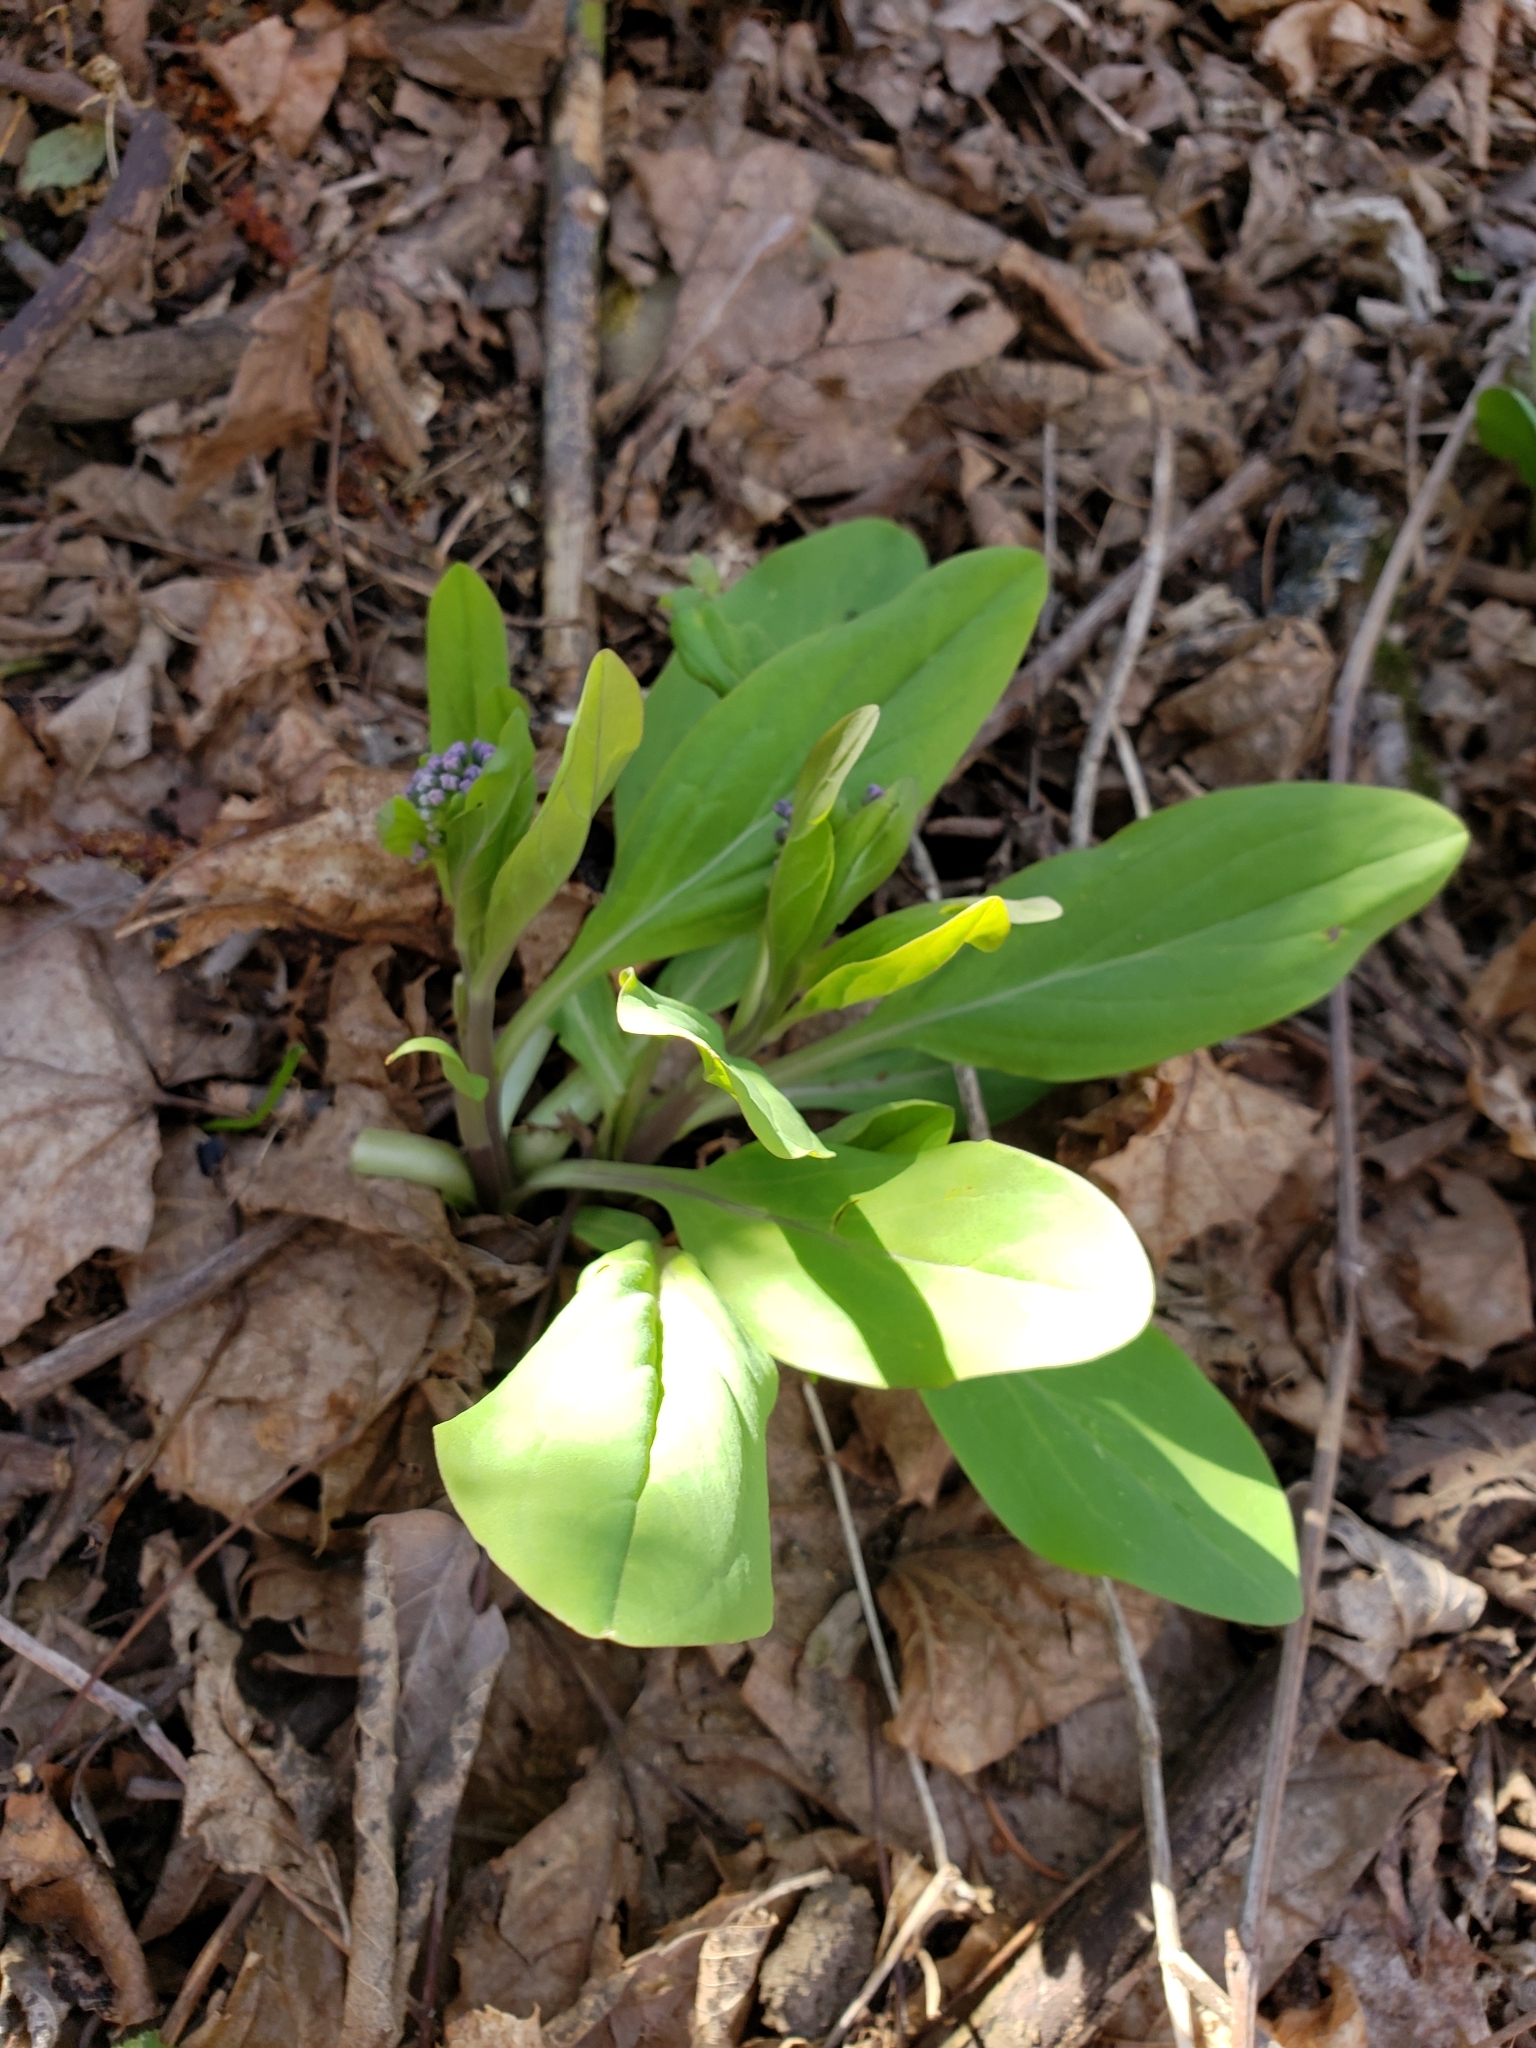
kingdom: Plantae
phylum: Tracheophyta
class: Magnoliopsida
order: Boraginales
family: Boraginaceae
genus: Mertensia
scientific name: Mertensia virginica
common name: Virginia bluebells
